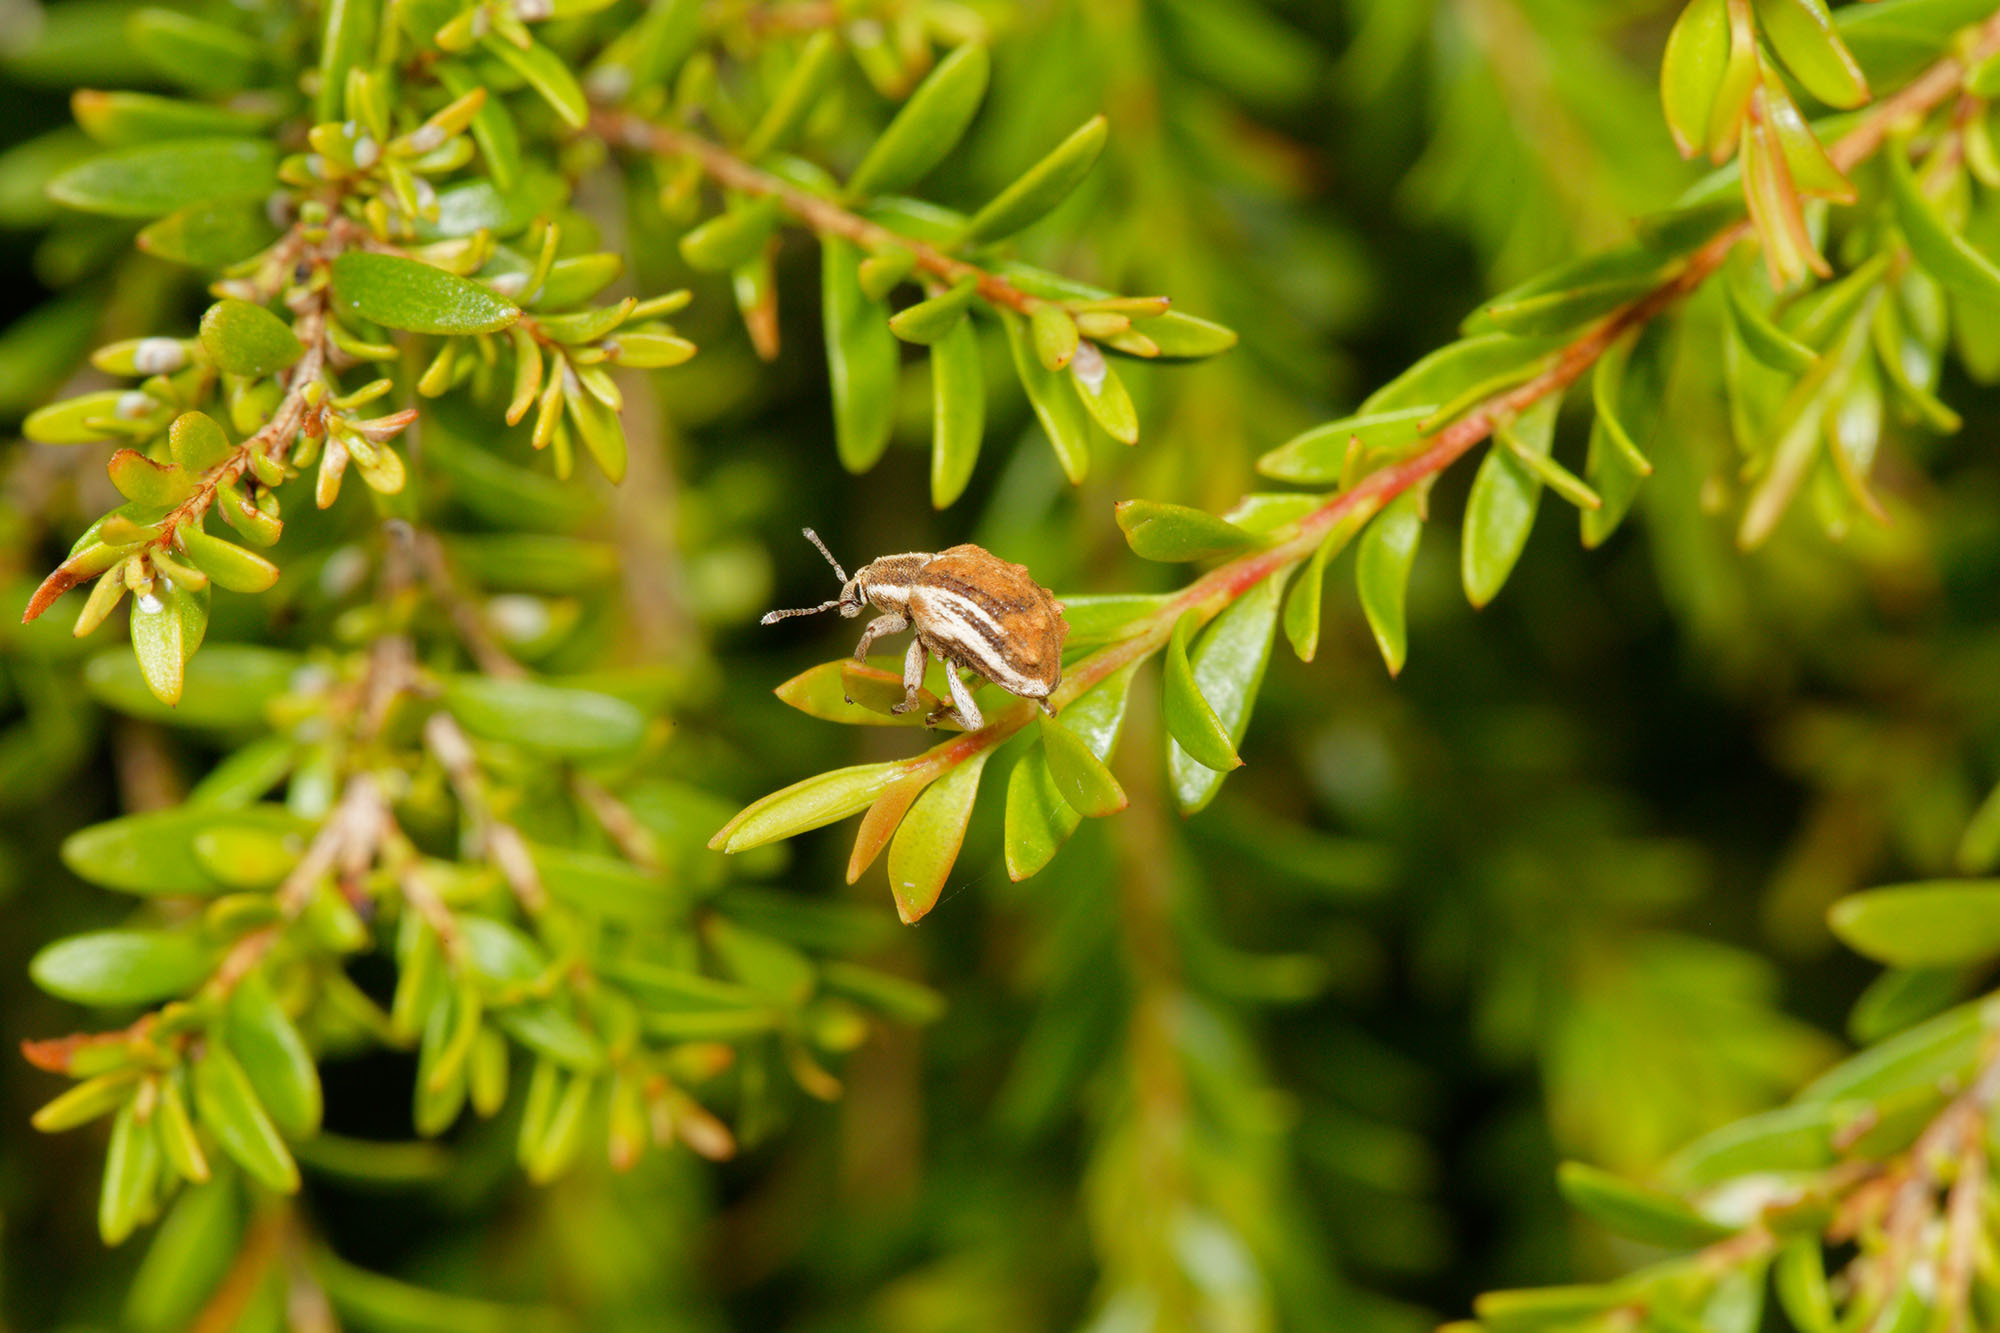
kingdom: Animalia
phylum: Arthropoda
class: Insecta
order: Coleoptera
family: Curculionidae
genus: Iptergonus
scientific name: Iptergonus bifurcatus
